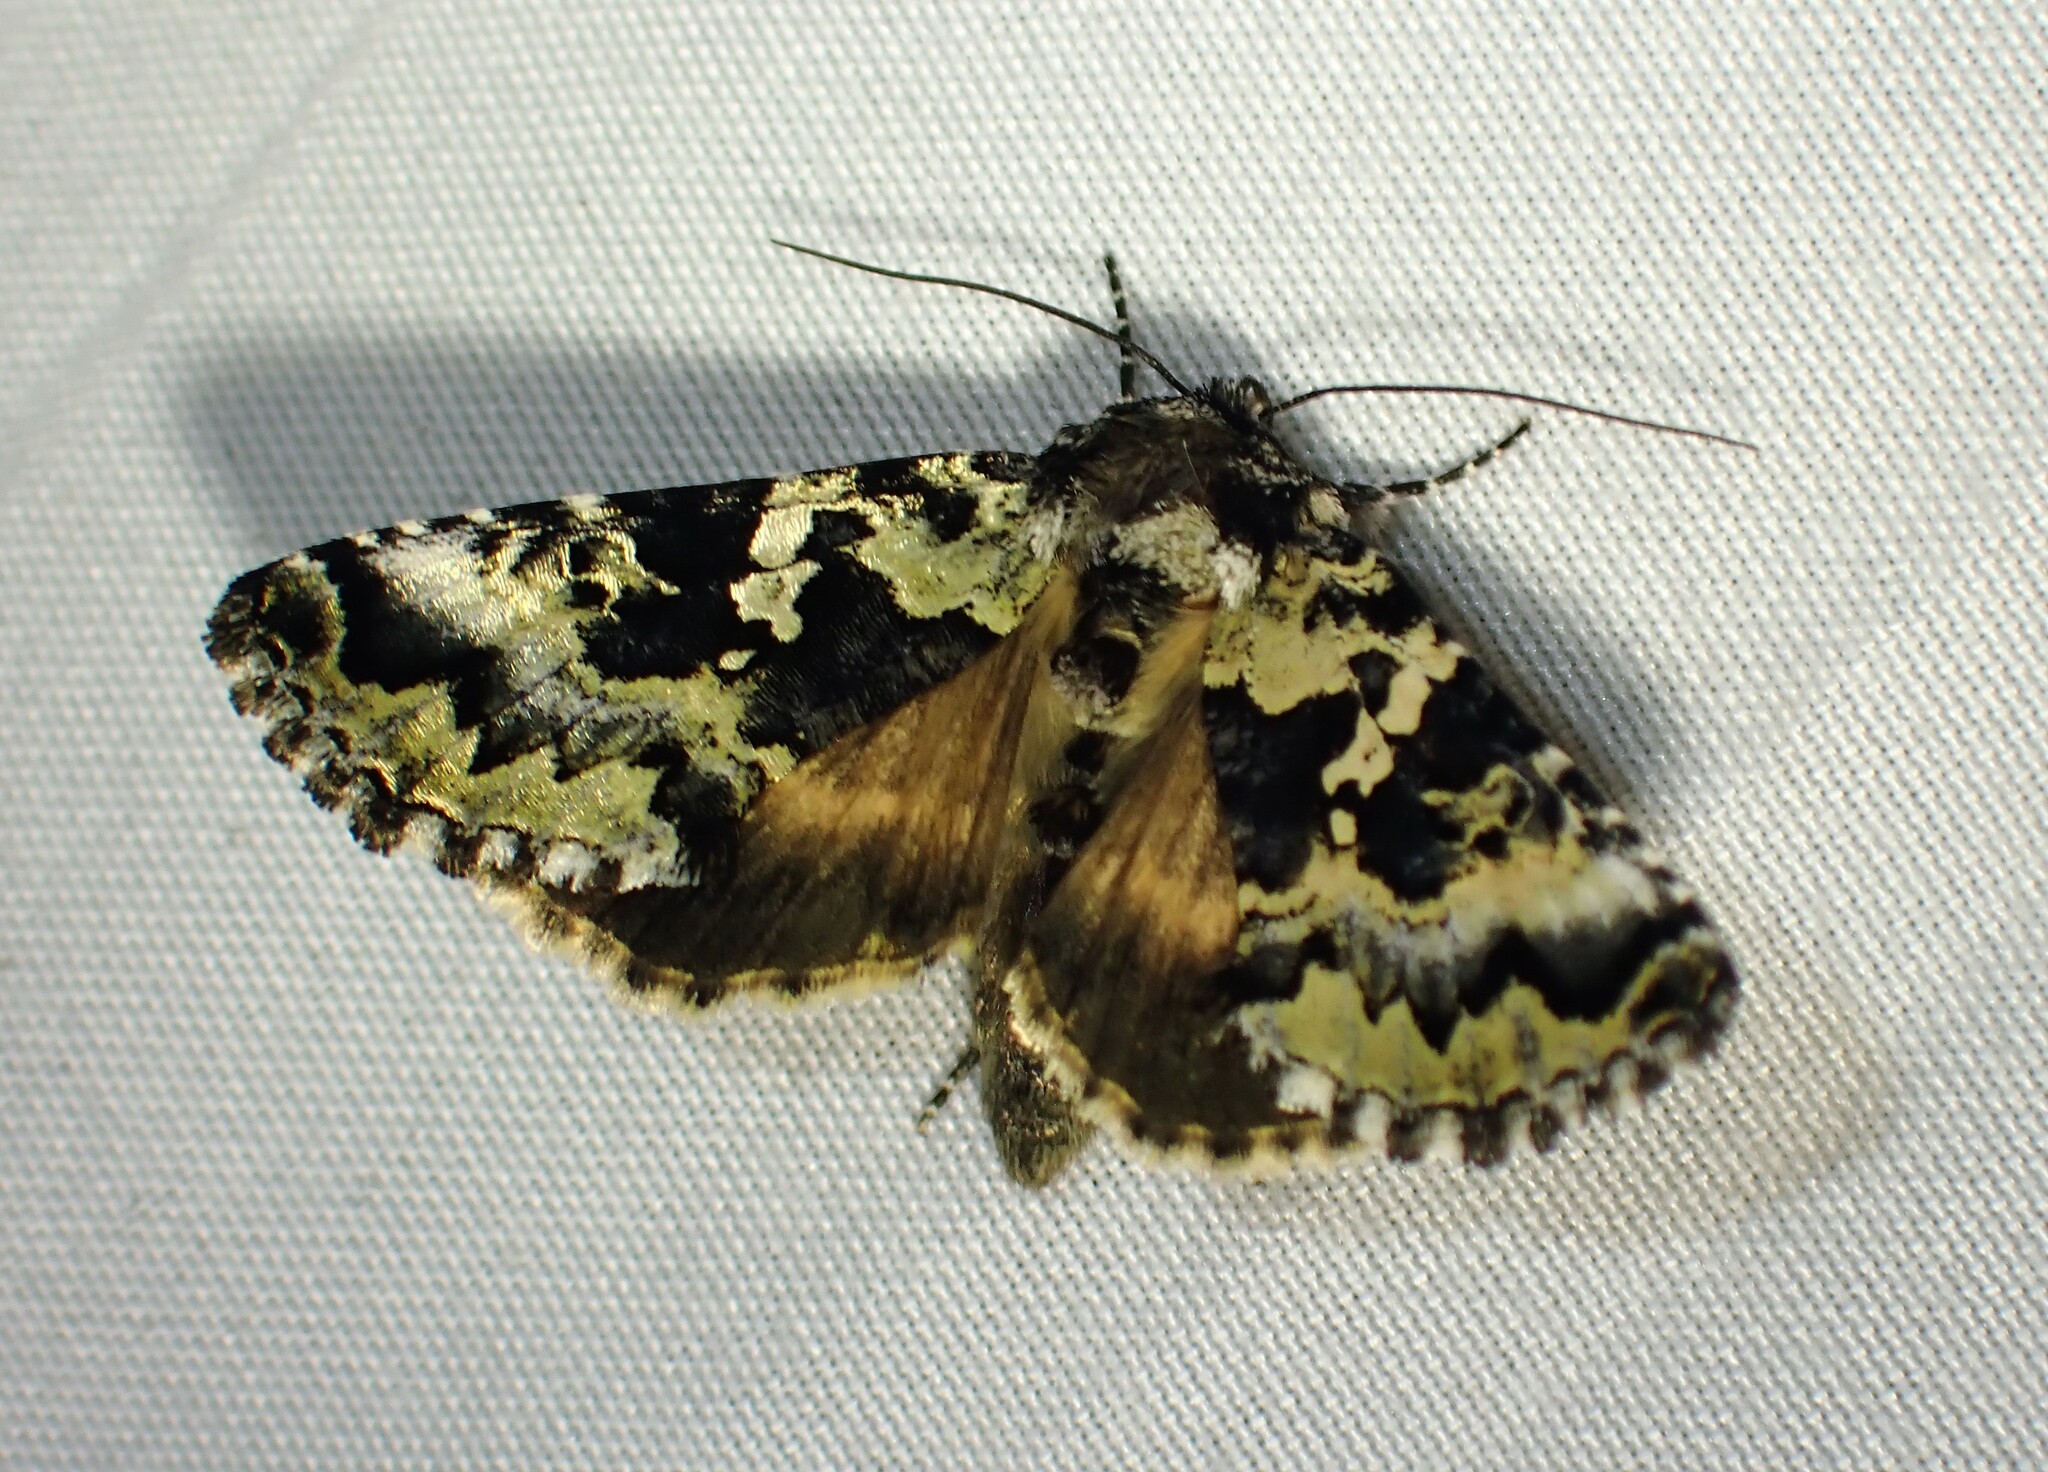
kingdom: Animalia
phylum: Arthropoda
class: Insecta
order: Lepidoptera
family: Noctuidae
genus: Syngrapha
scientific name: Syngrapha rectangula
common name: Angulated cutworm
